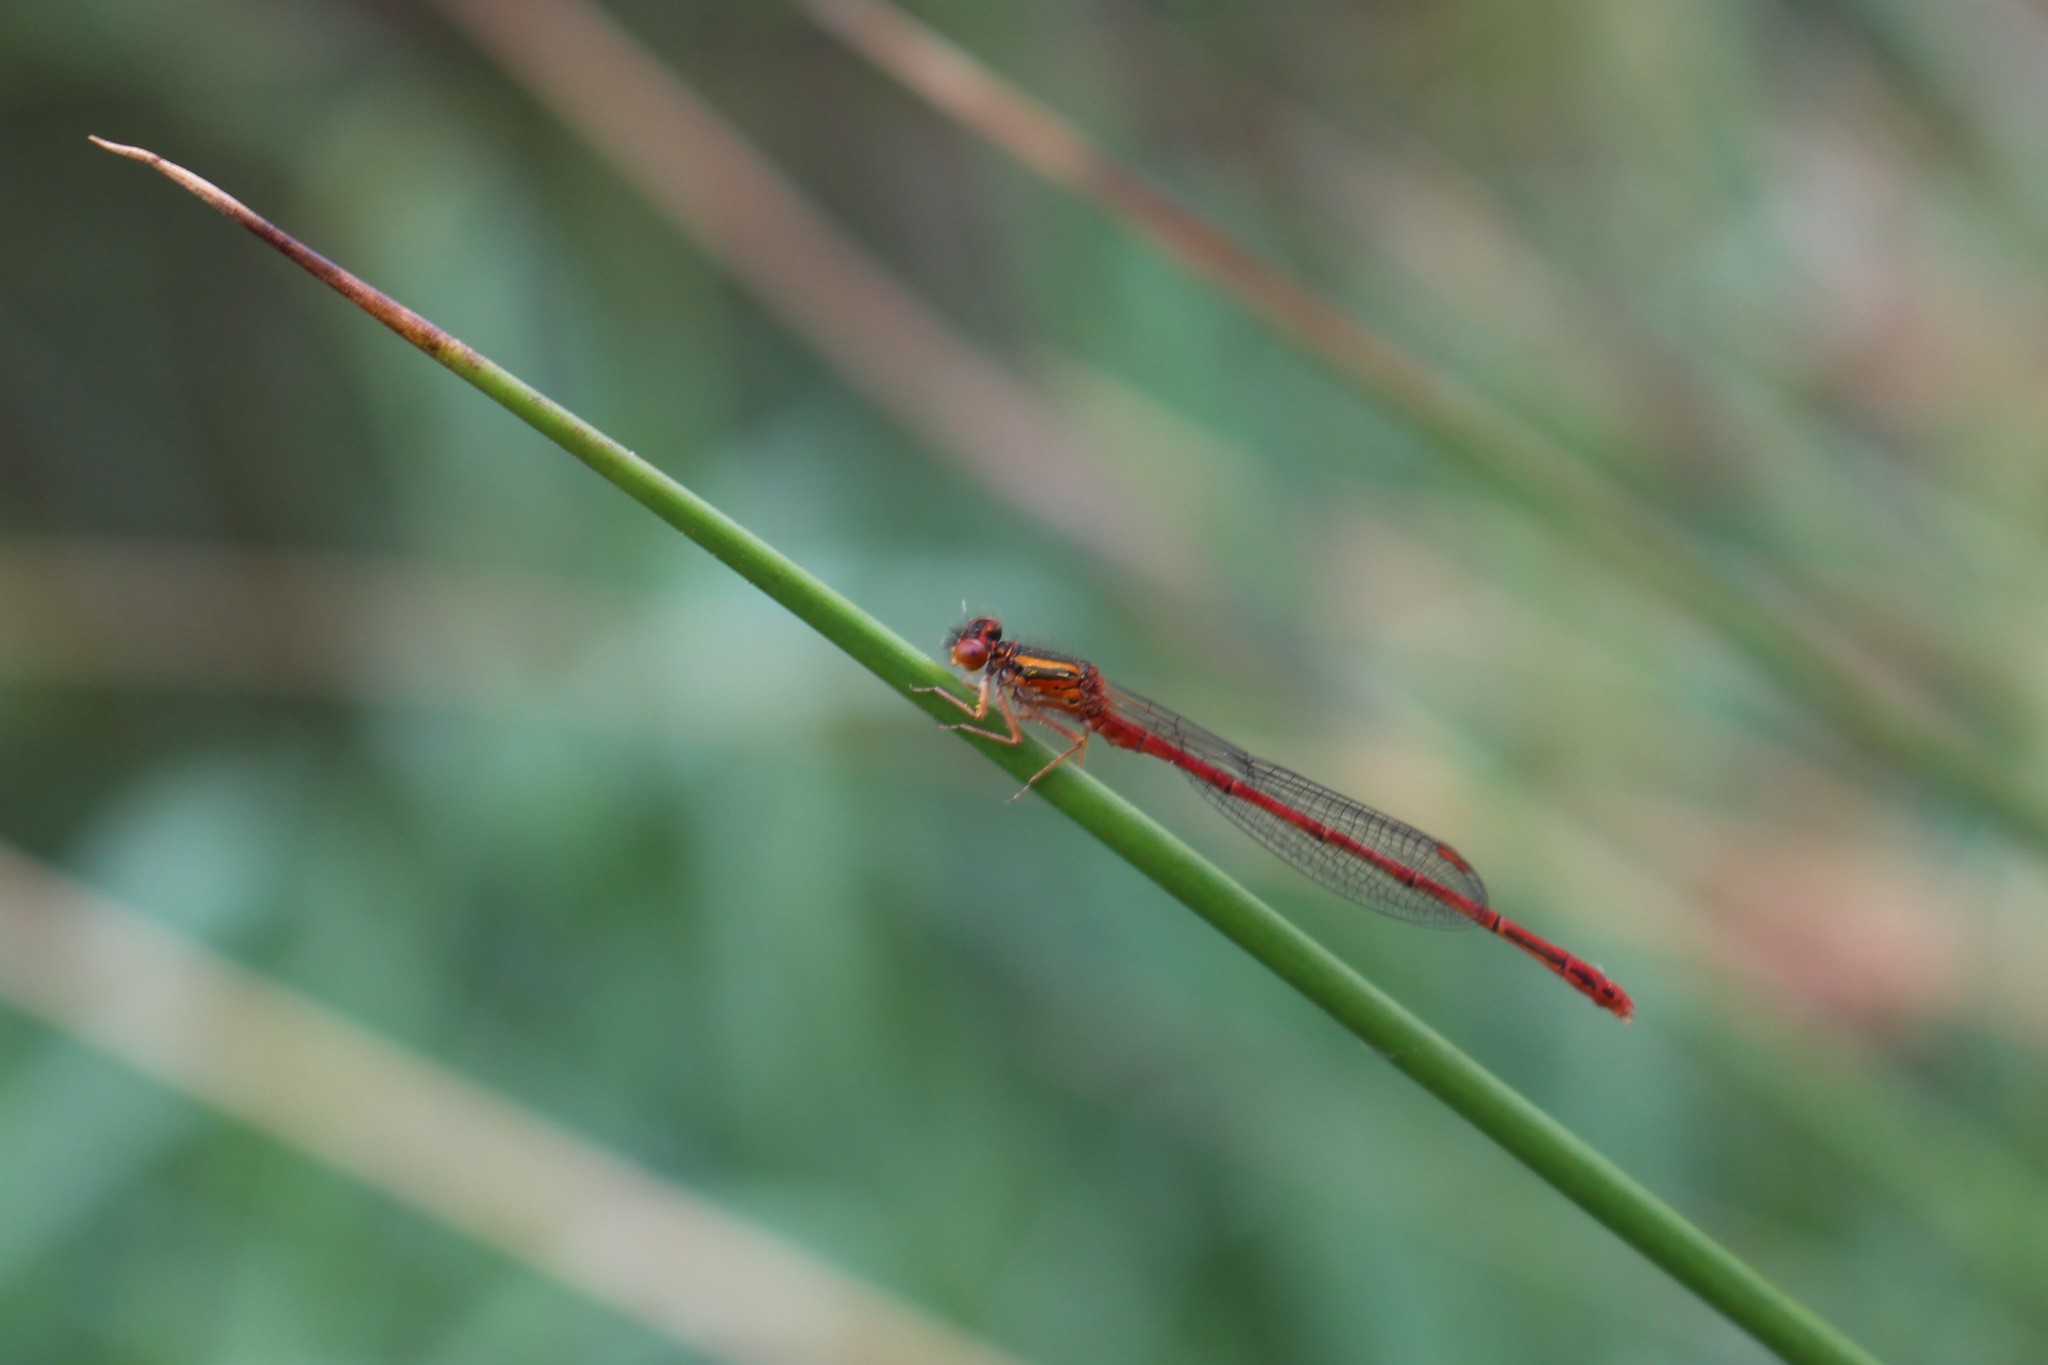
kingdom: Animalia
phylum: Arthropoda
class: Insecta
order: Odonata
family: Coenagrionidae
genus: Xanthocnemis
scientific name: Xanthocnemis zealandica
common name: Common redcoat damselfly
